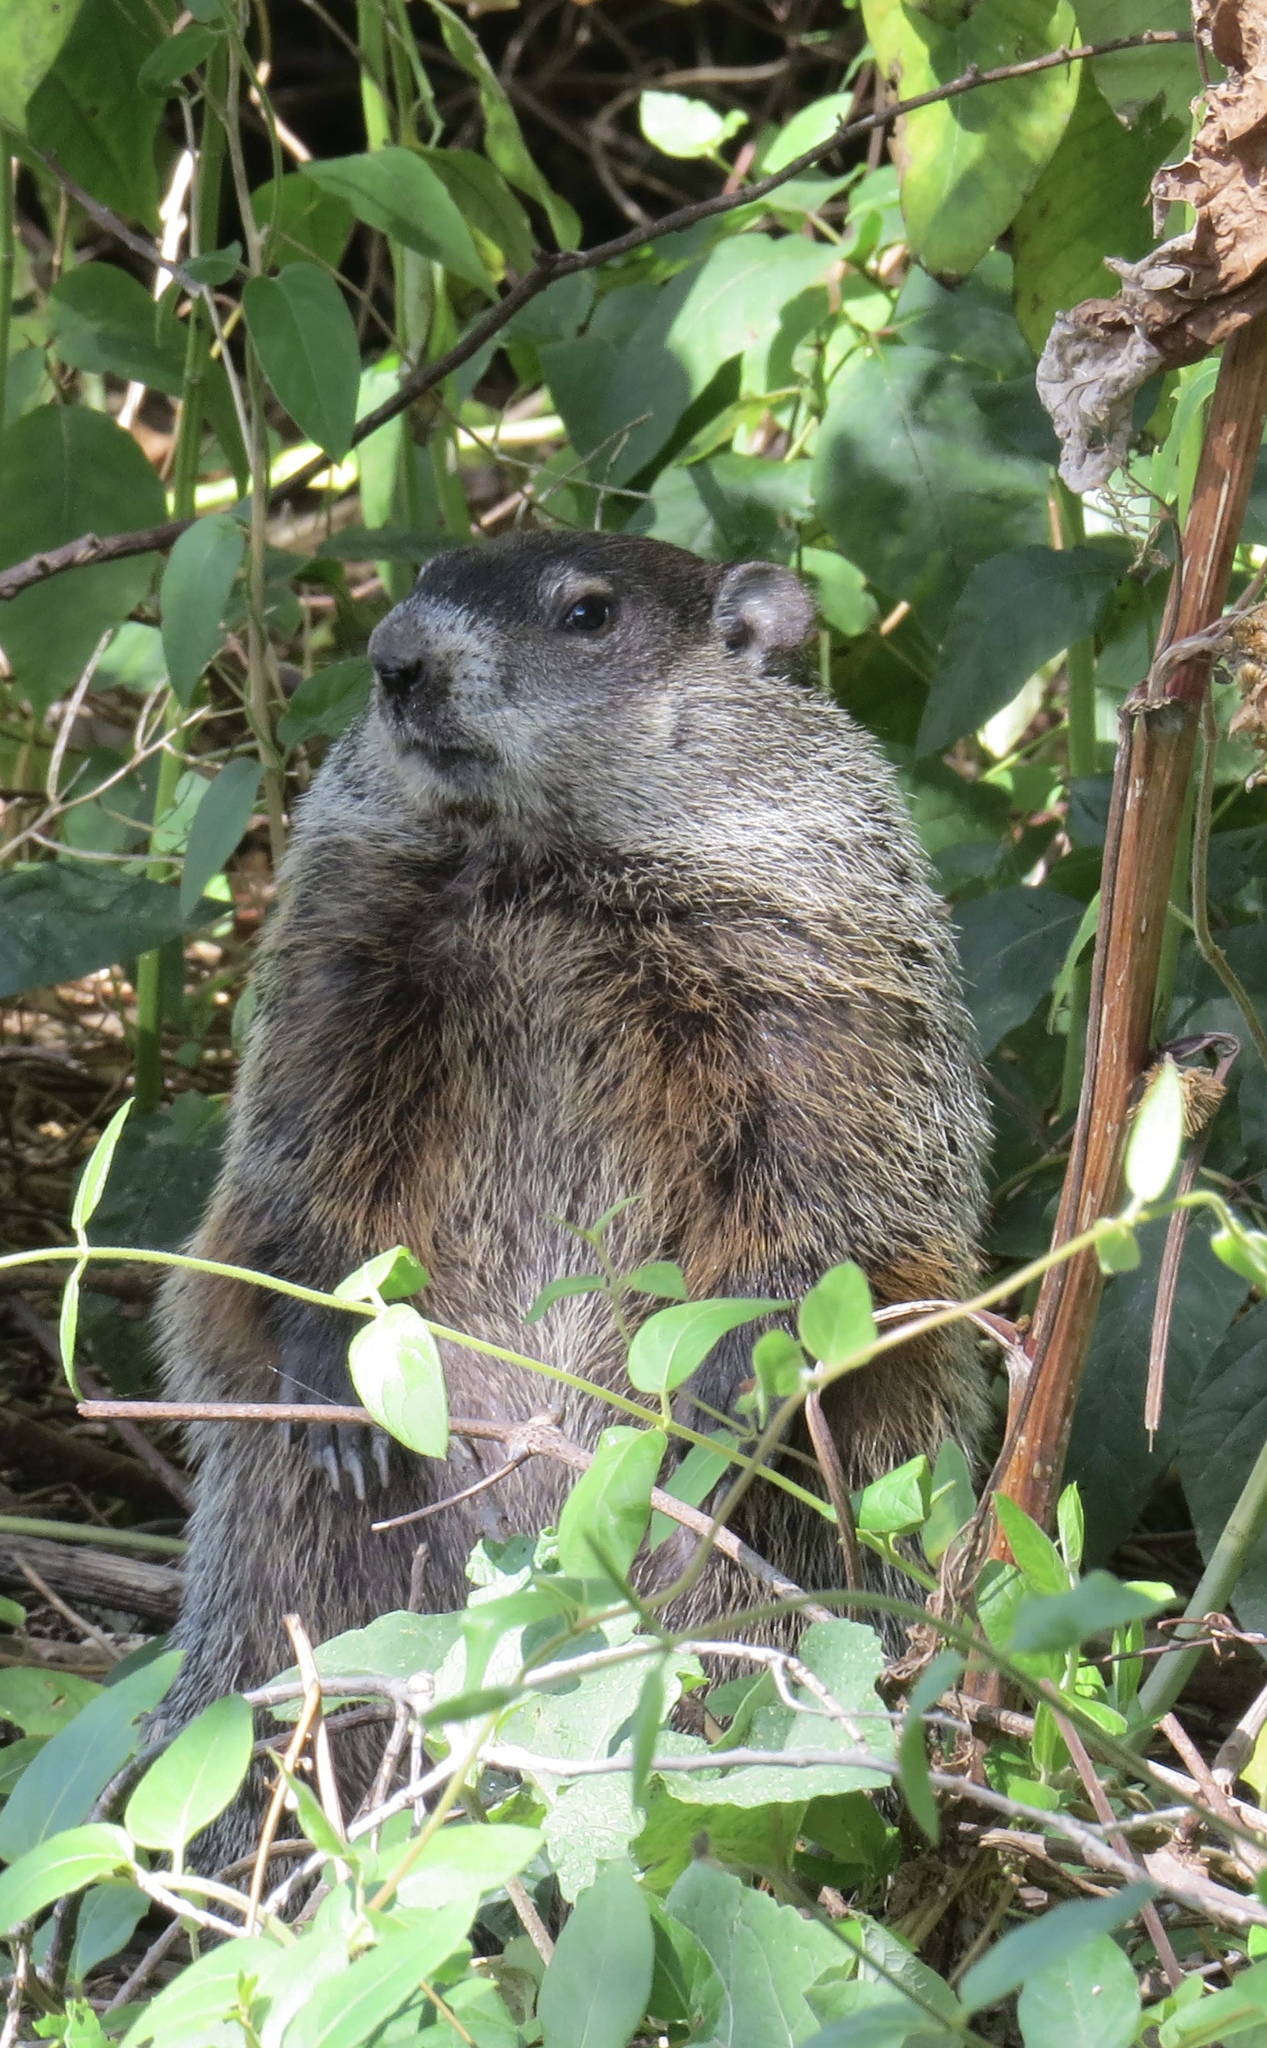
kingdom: Animalia
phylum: Chordata
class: Mammalia
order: Rodentia
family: Sciuridae
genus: Marmota
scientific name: Marmota monax
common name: Groundhog
